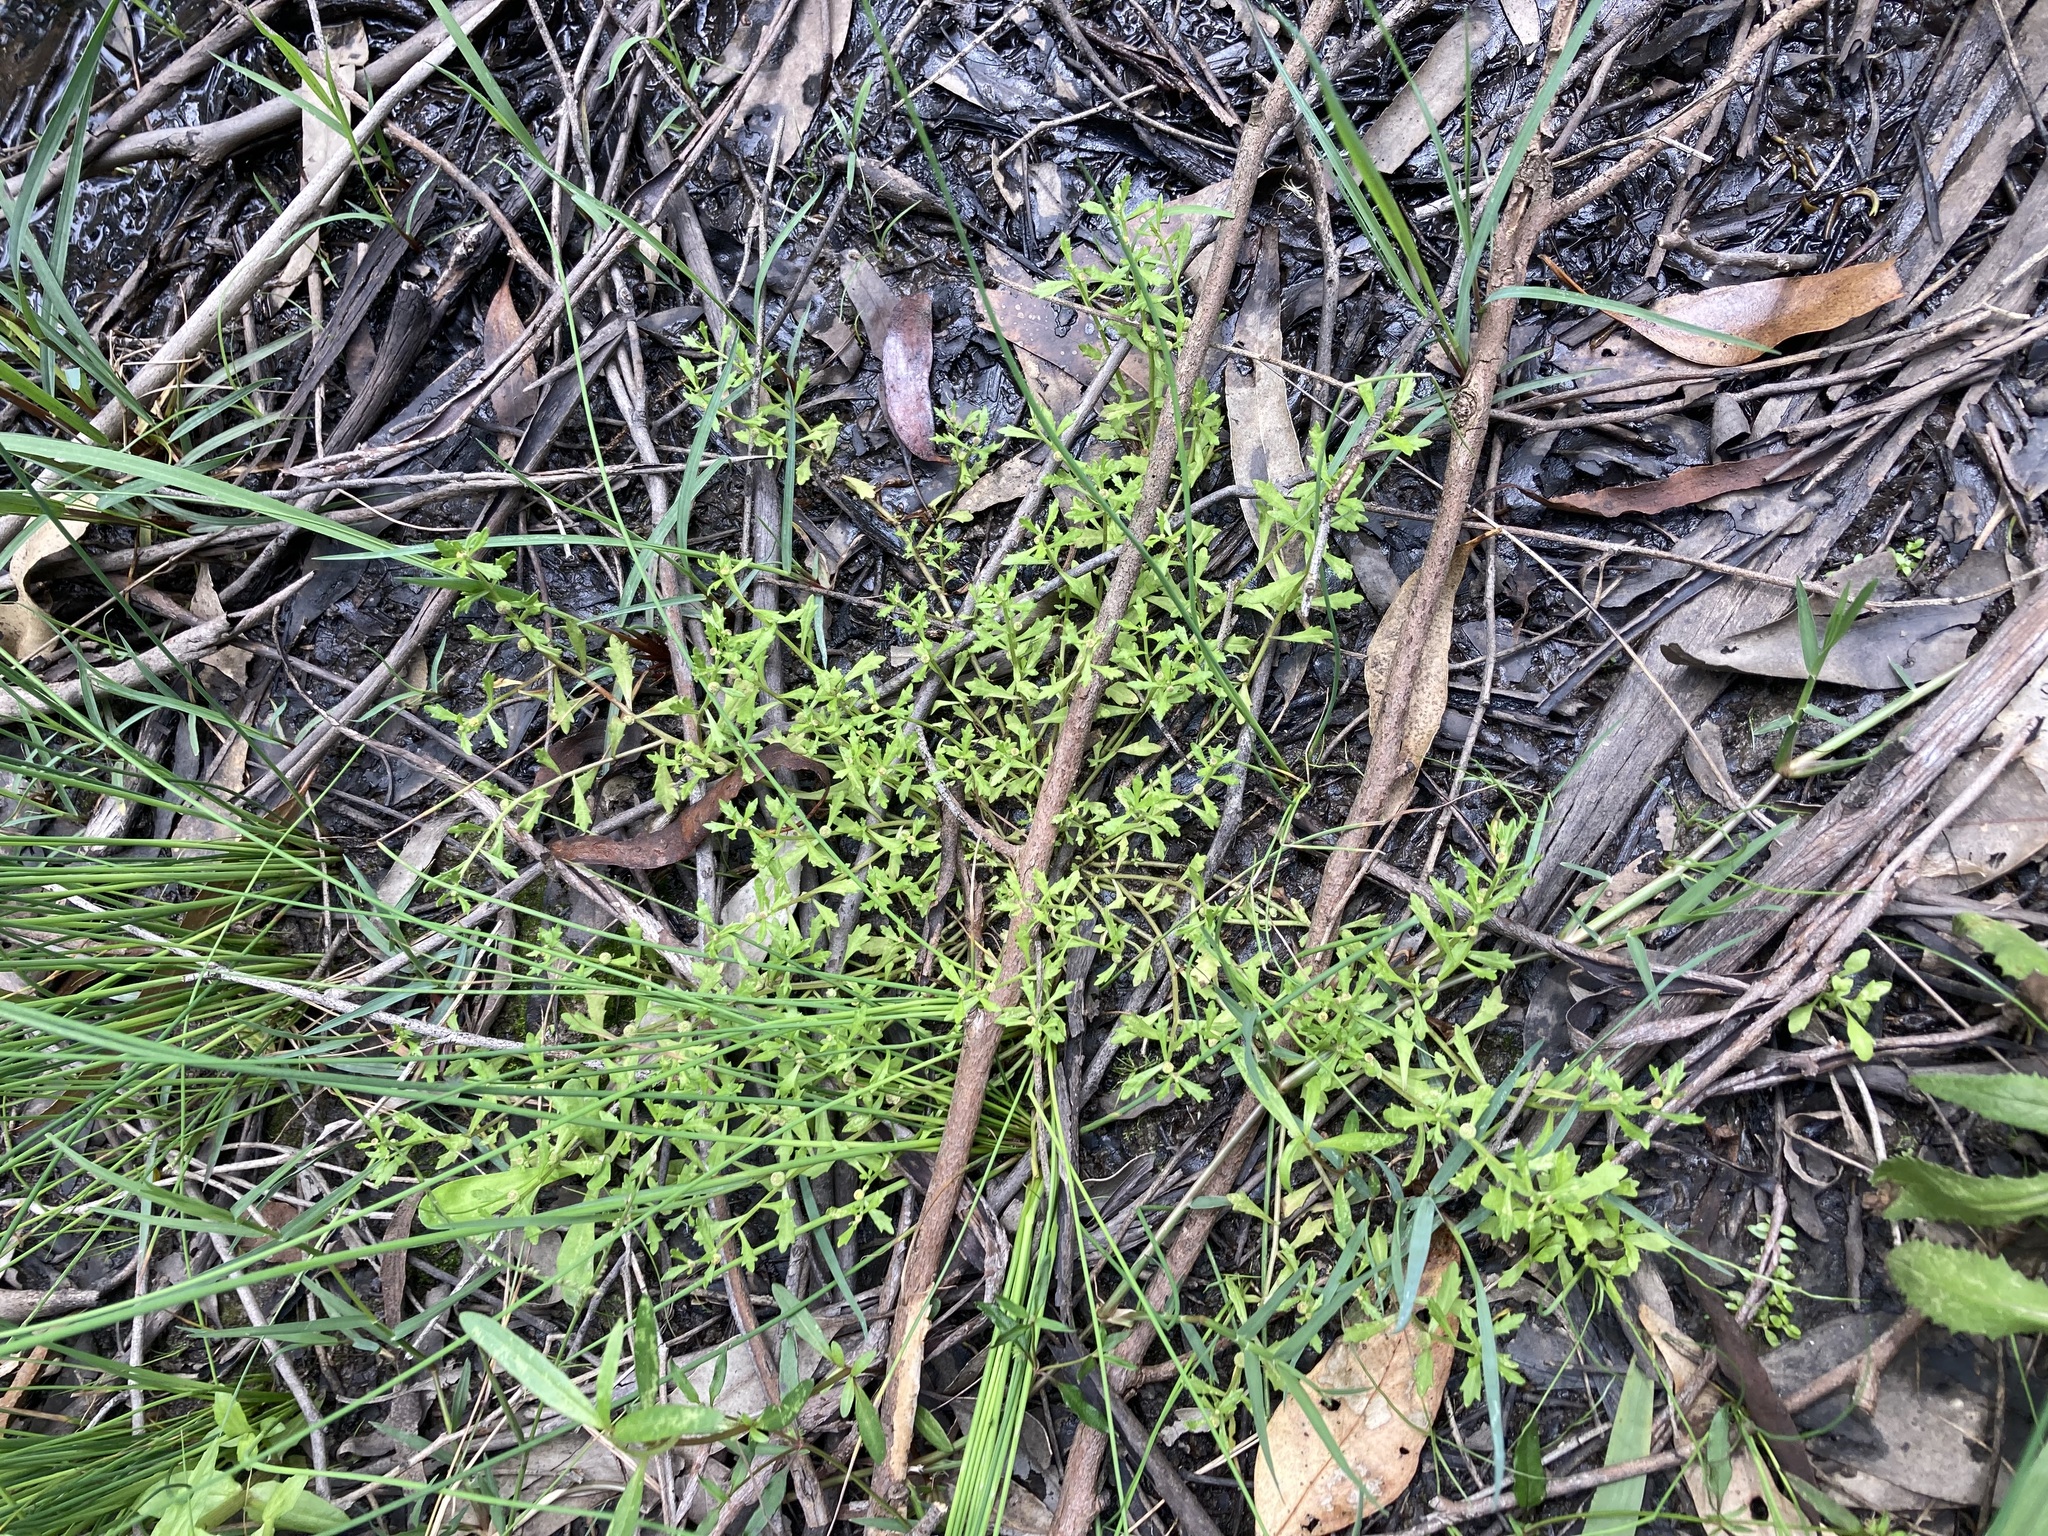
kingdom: Plantae
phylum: Tracheophyta
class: Magnoliopsida
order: Asterales
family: Asteraceae
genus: Centipeda
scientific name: Centipeda minima
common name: Spreading sneezeweed
